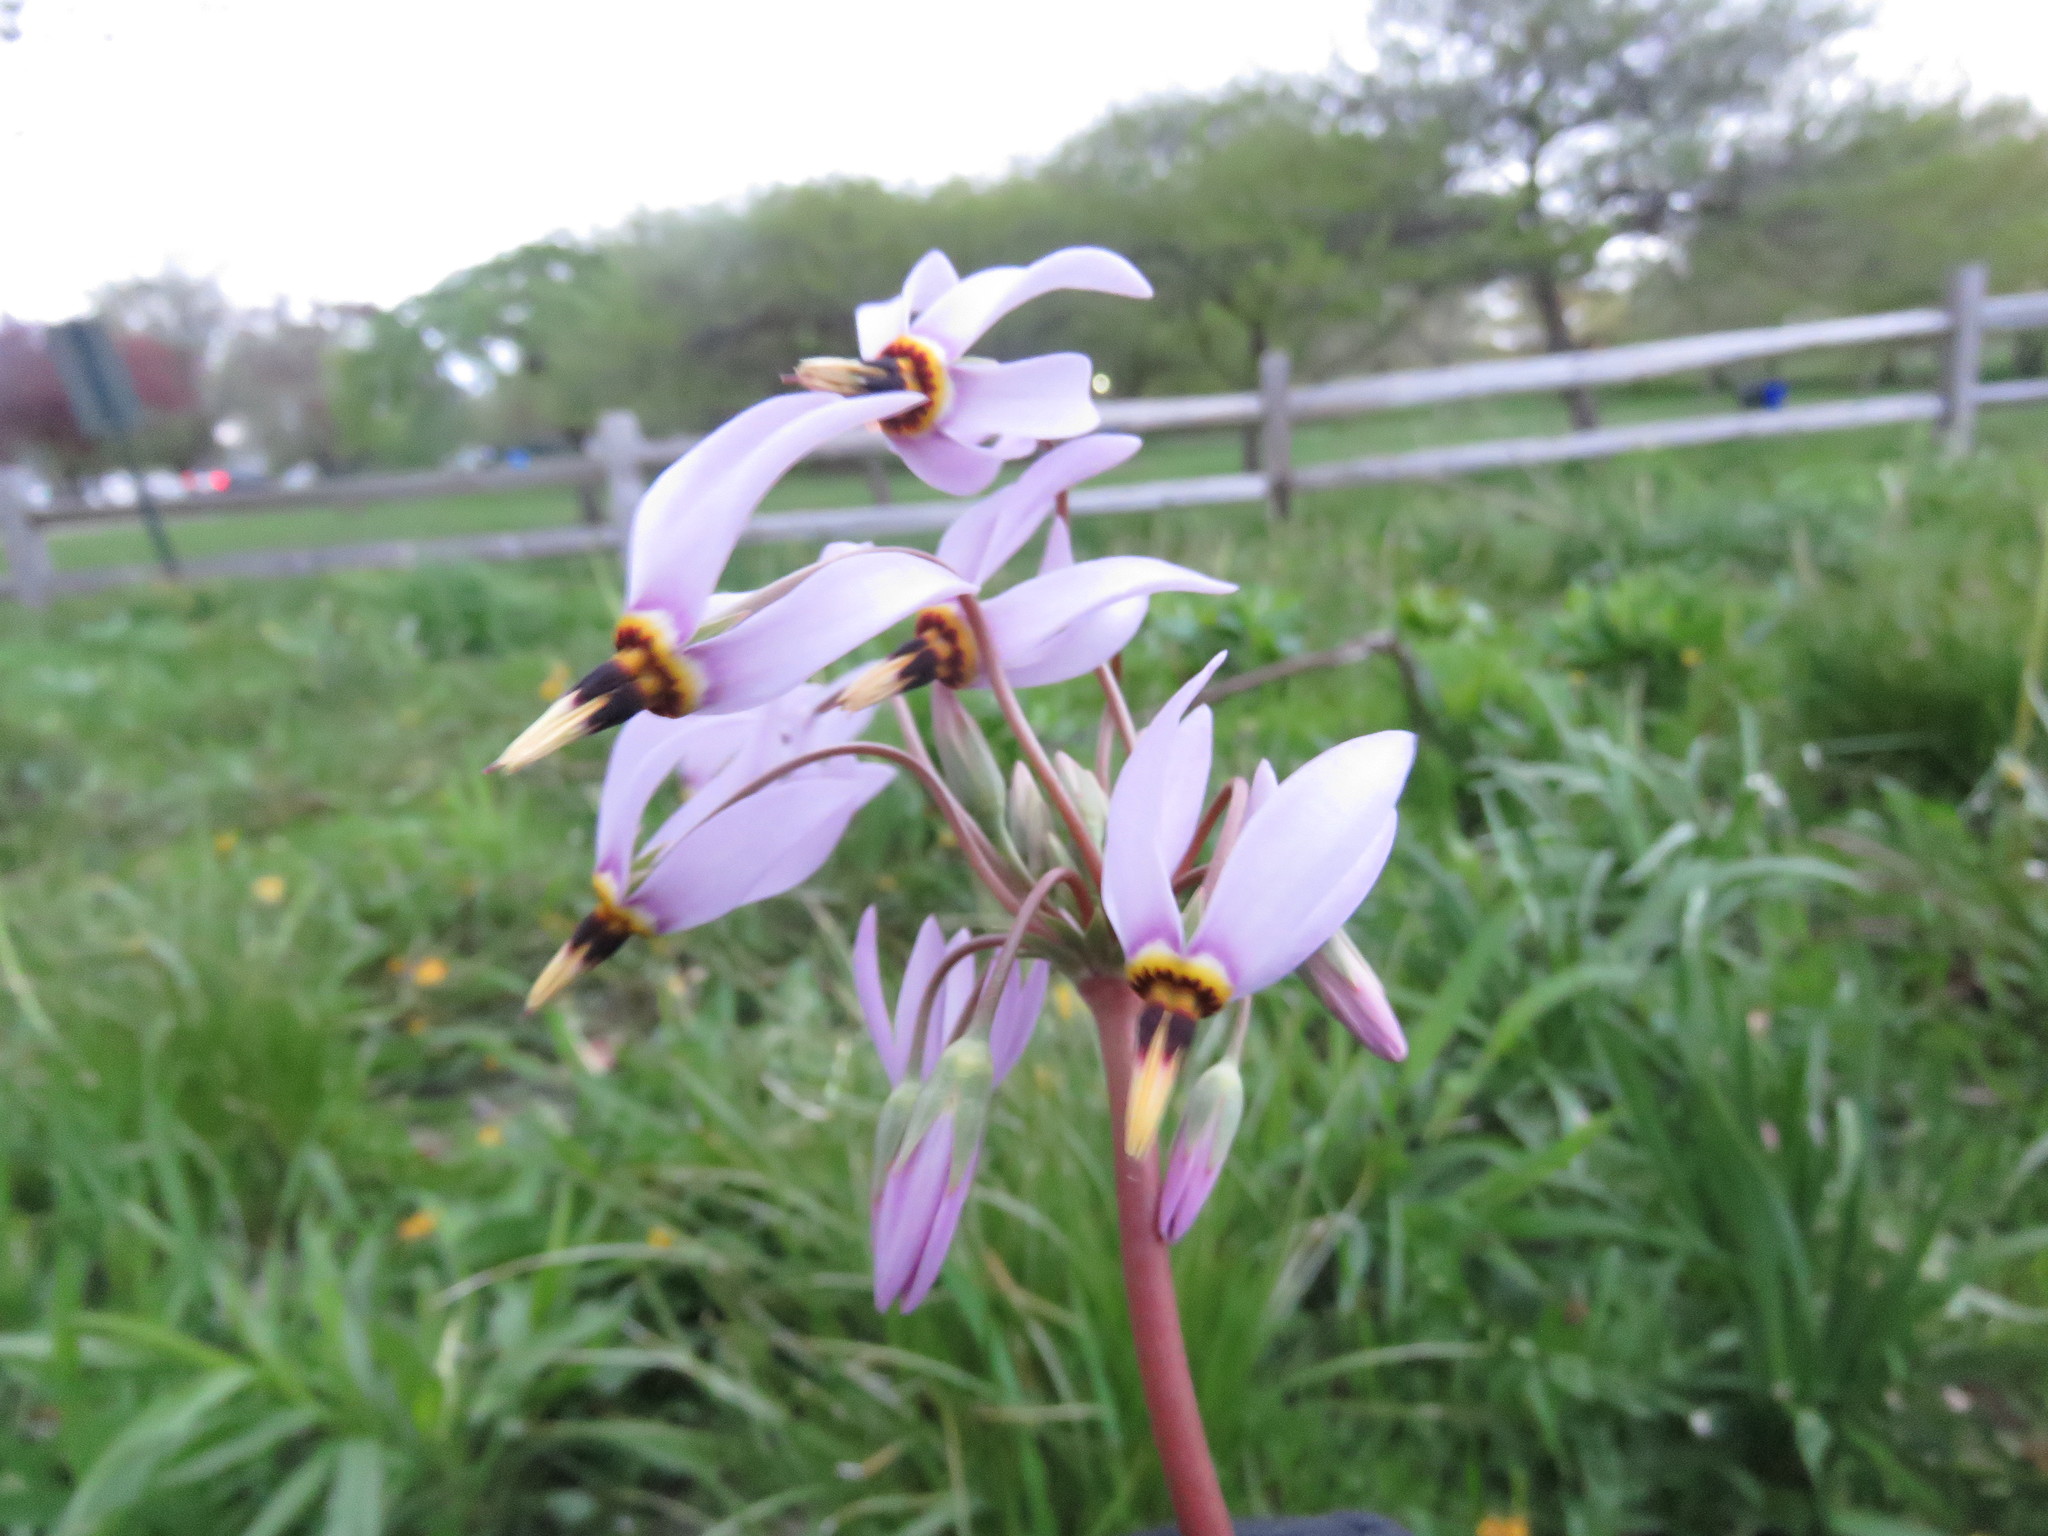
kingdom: Plantae
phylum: Tracheophyta
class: Magnoliopsida
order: Ericales
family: Primulaceae
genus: Dodecatheon
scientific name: Dodecatheon meadia
